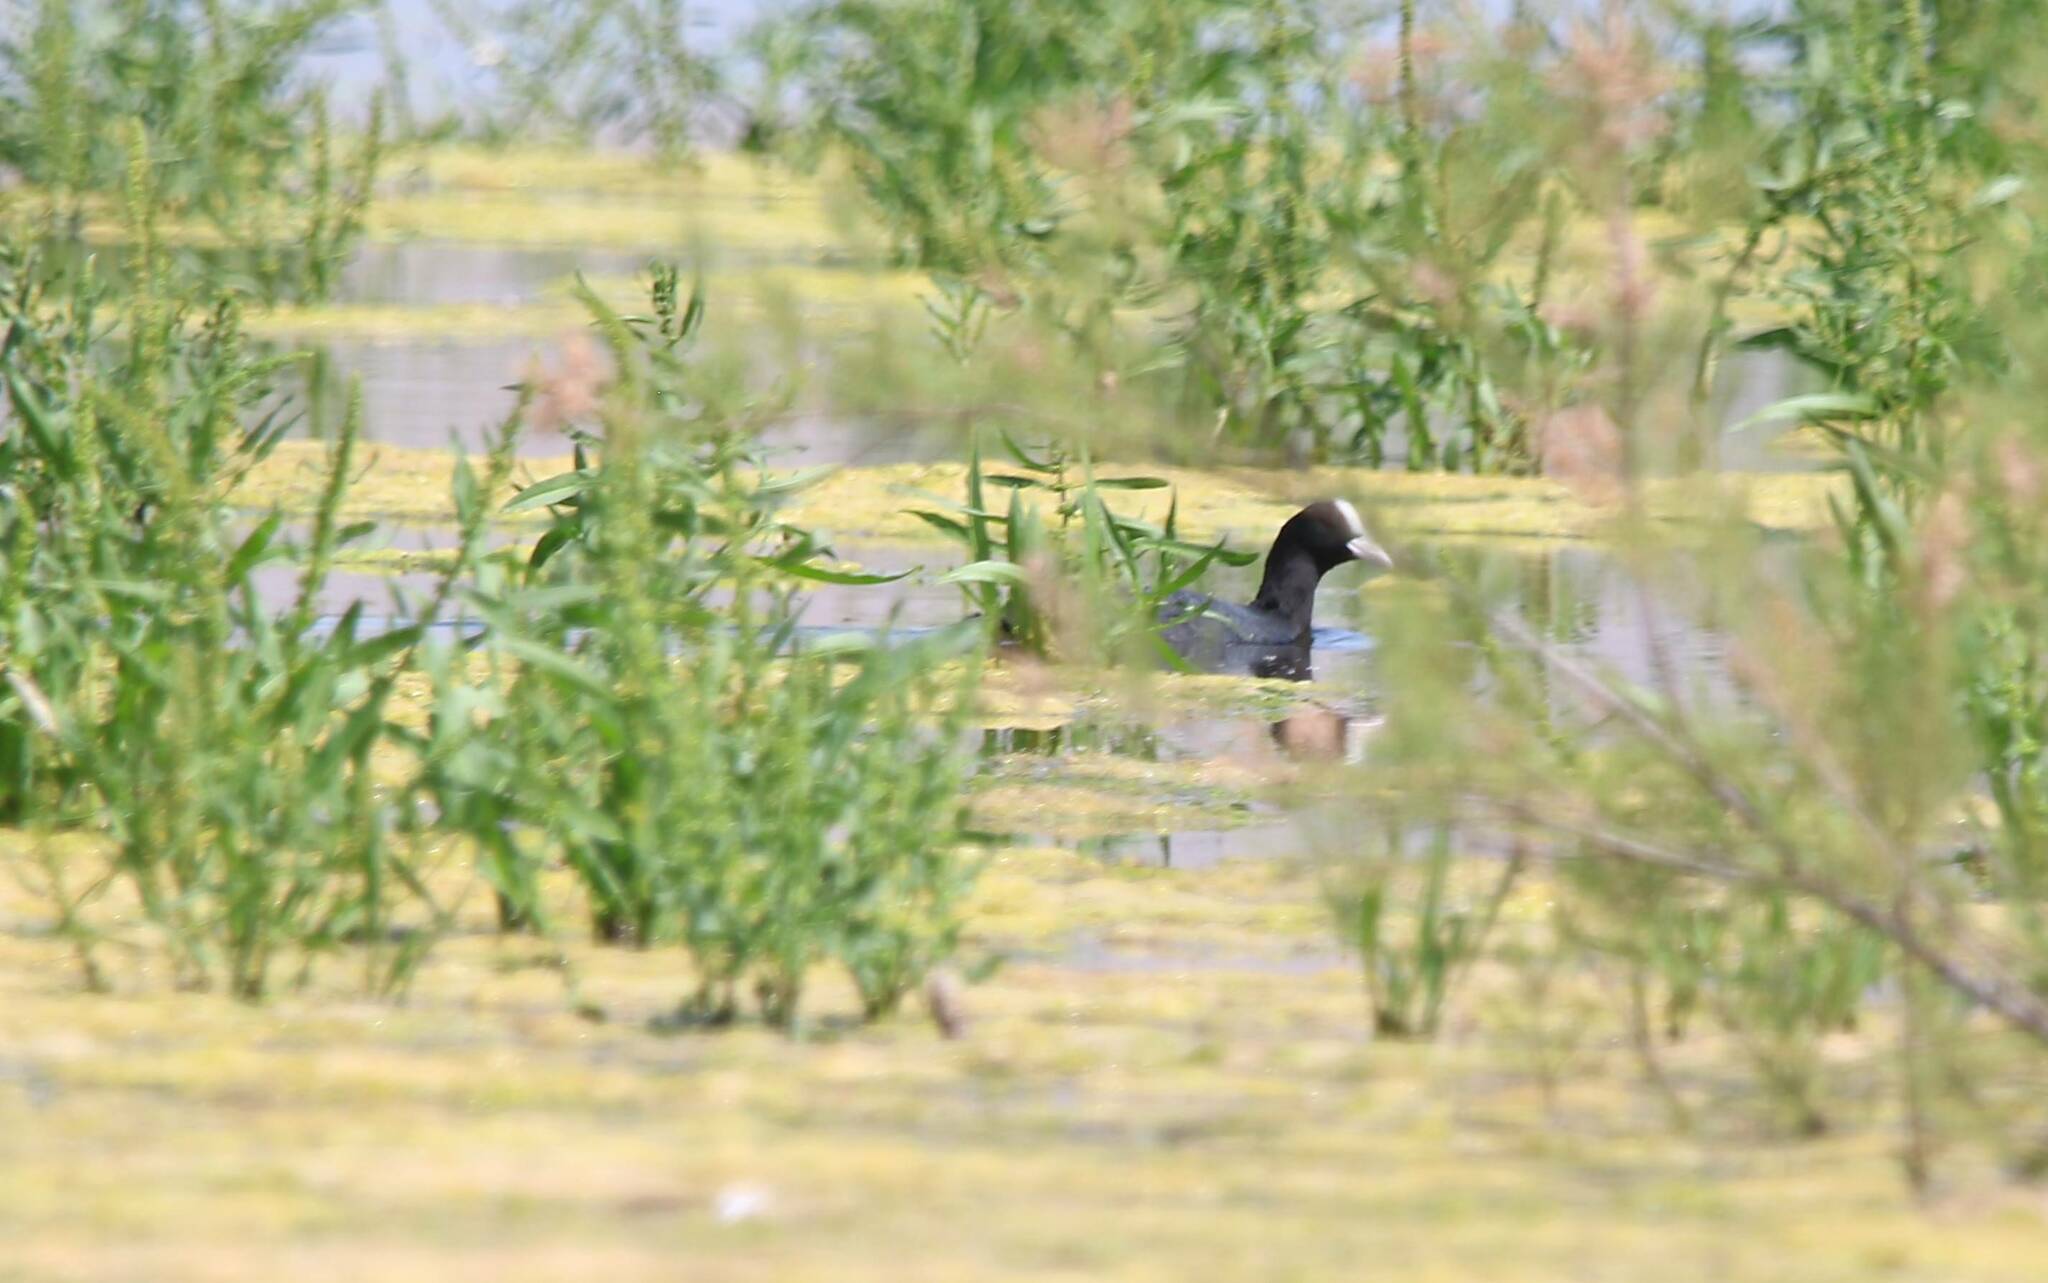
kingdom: Animalia
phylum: Chordata
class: Aves
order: Gruiformes
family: Rallidae
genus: Fulica
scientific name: Fulica atra
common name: Eurasian coot
